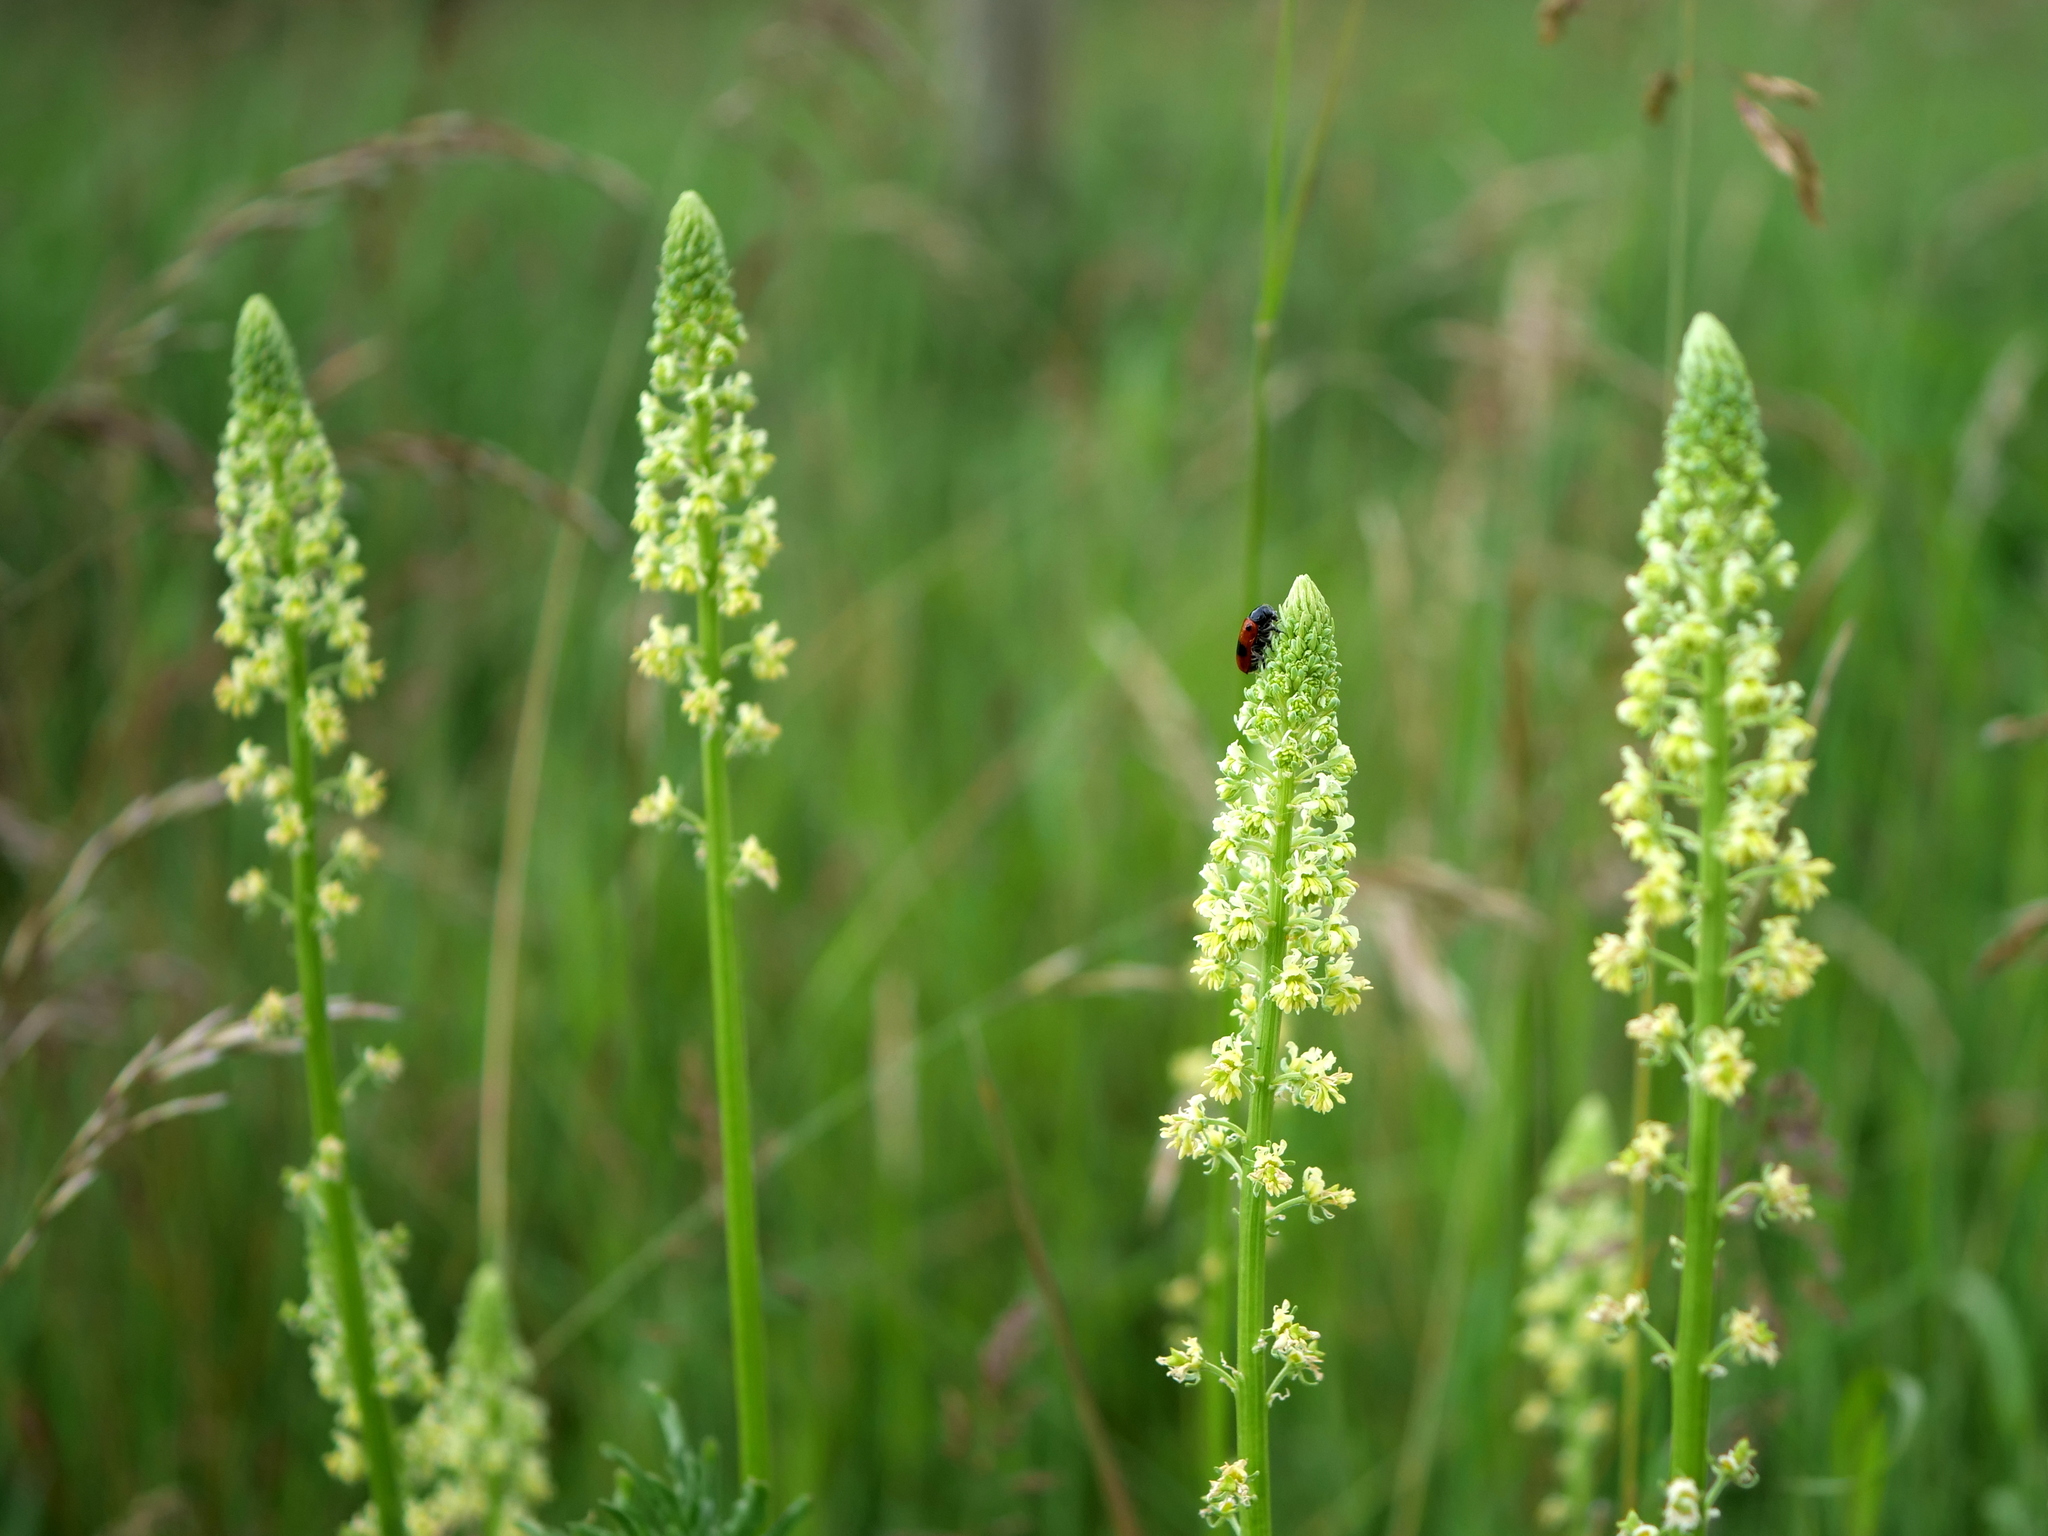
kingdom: Plantae
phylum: Tracheophyta
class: Magnoliopsida
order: Brassicales
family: Resedaceae
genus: Reseda
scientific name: Reseda lutea
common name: Wild mignonette
